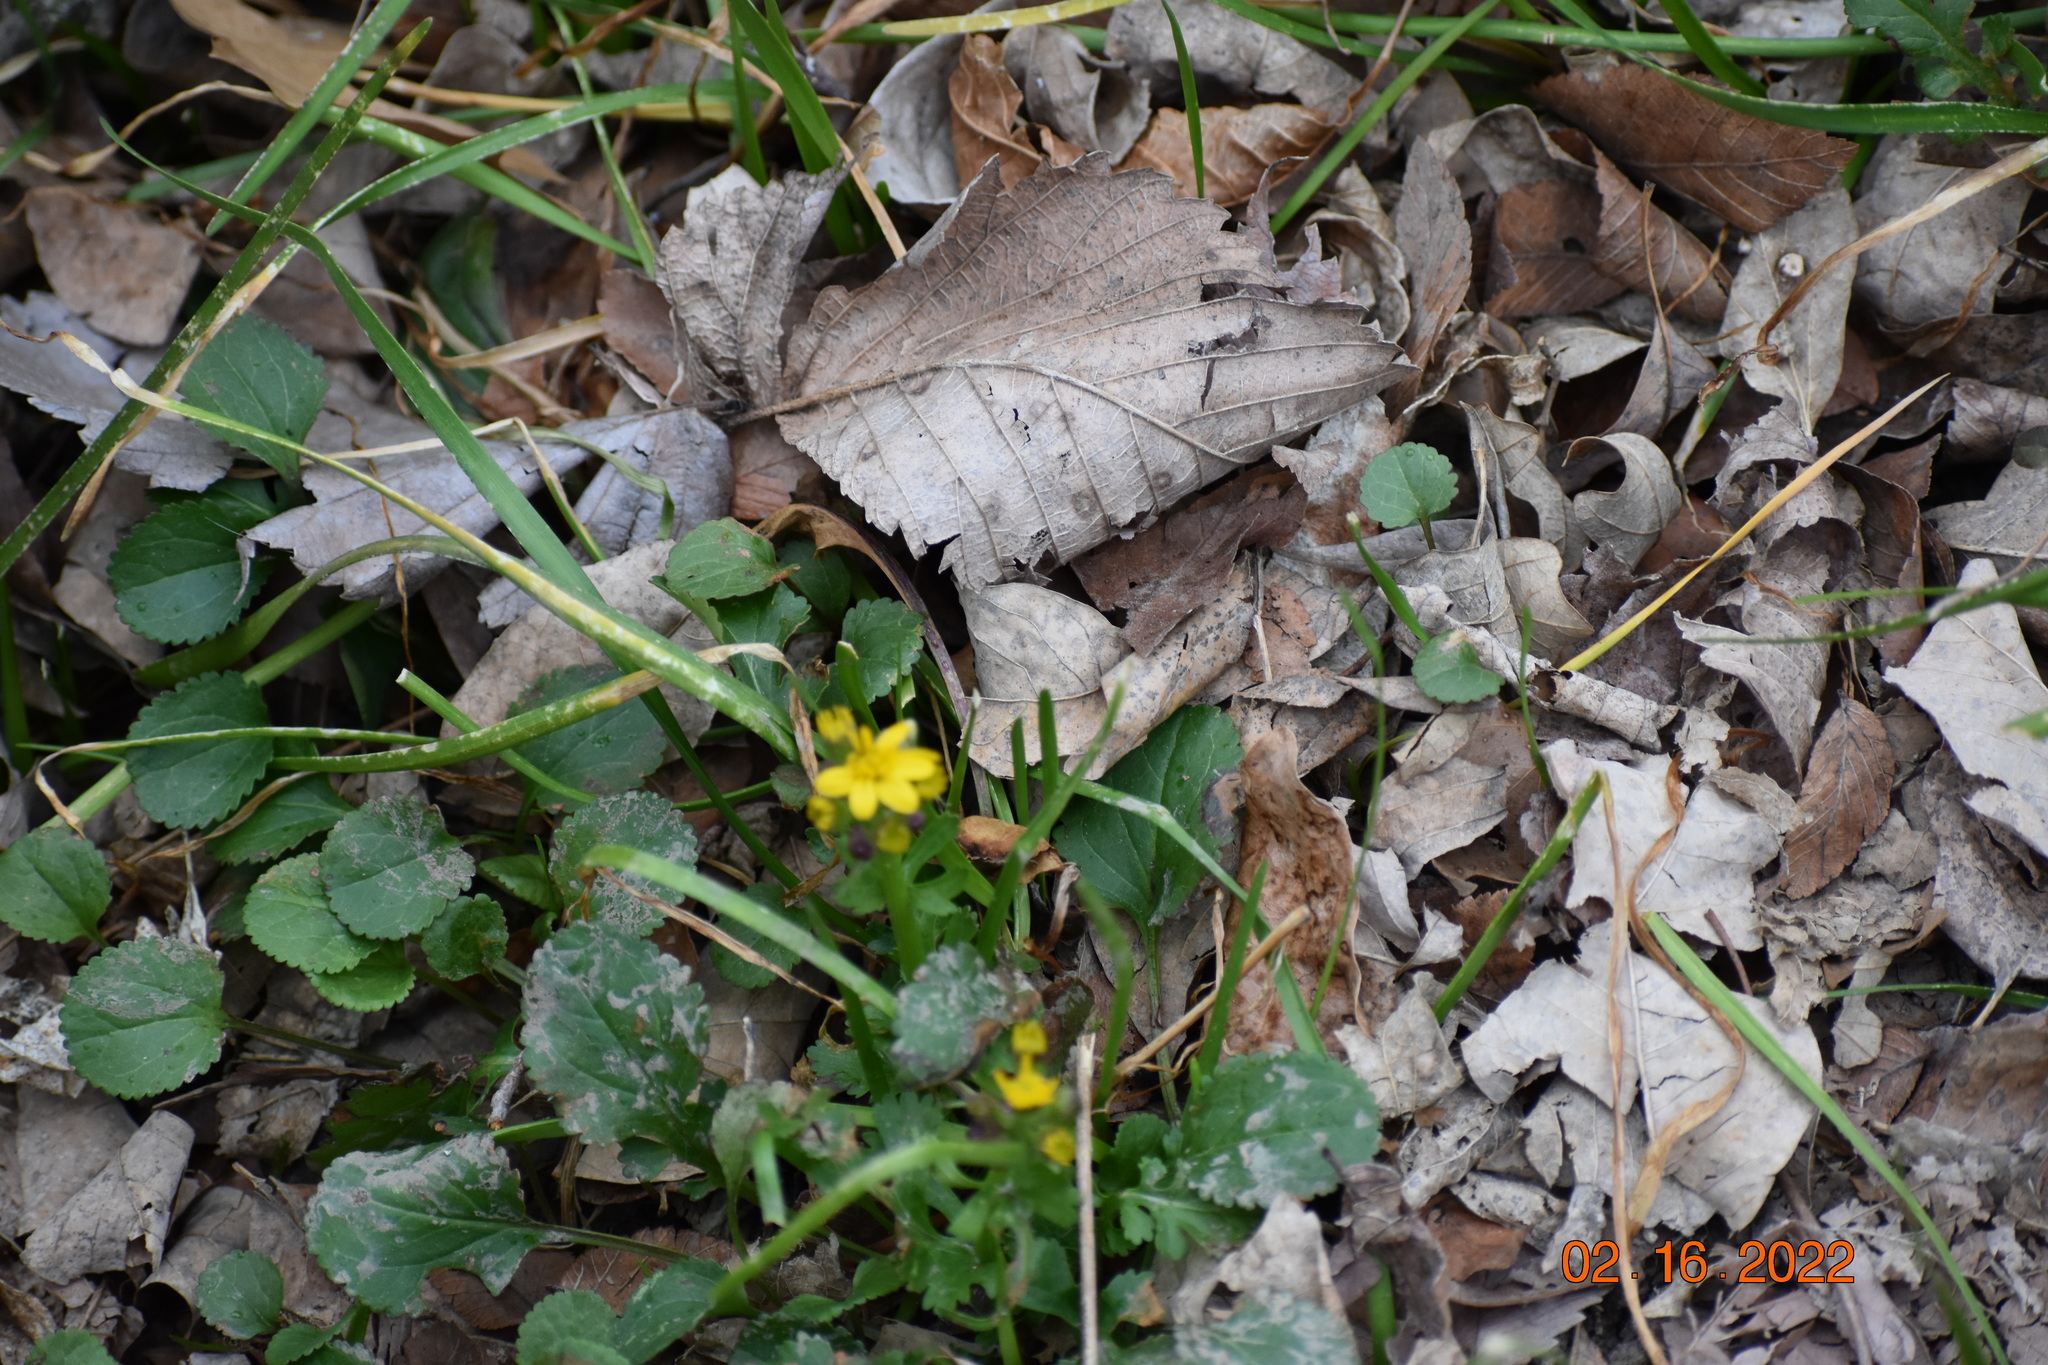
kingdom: Plantae
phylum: Tracheophyta
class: Magnoliopsida
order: Asterales
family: Asteraceae
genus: Packera
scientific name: Packera obovata
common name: Round-leaf ragwort
